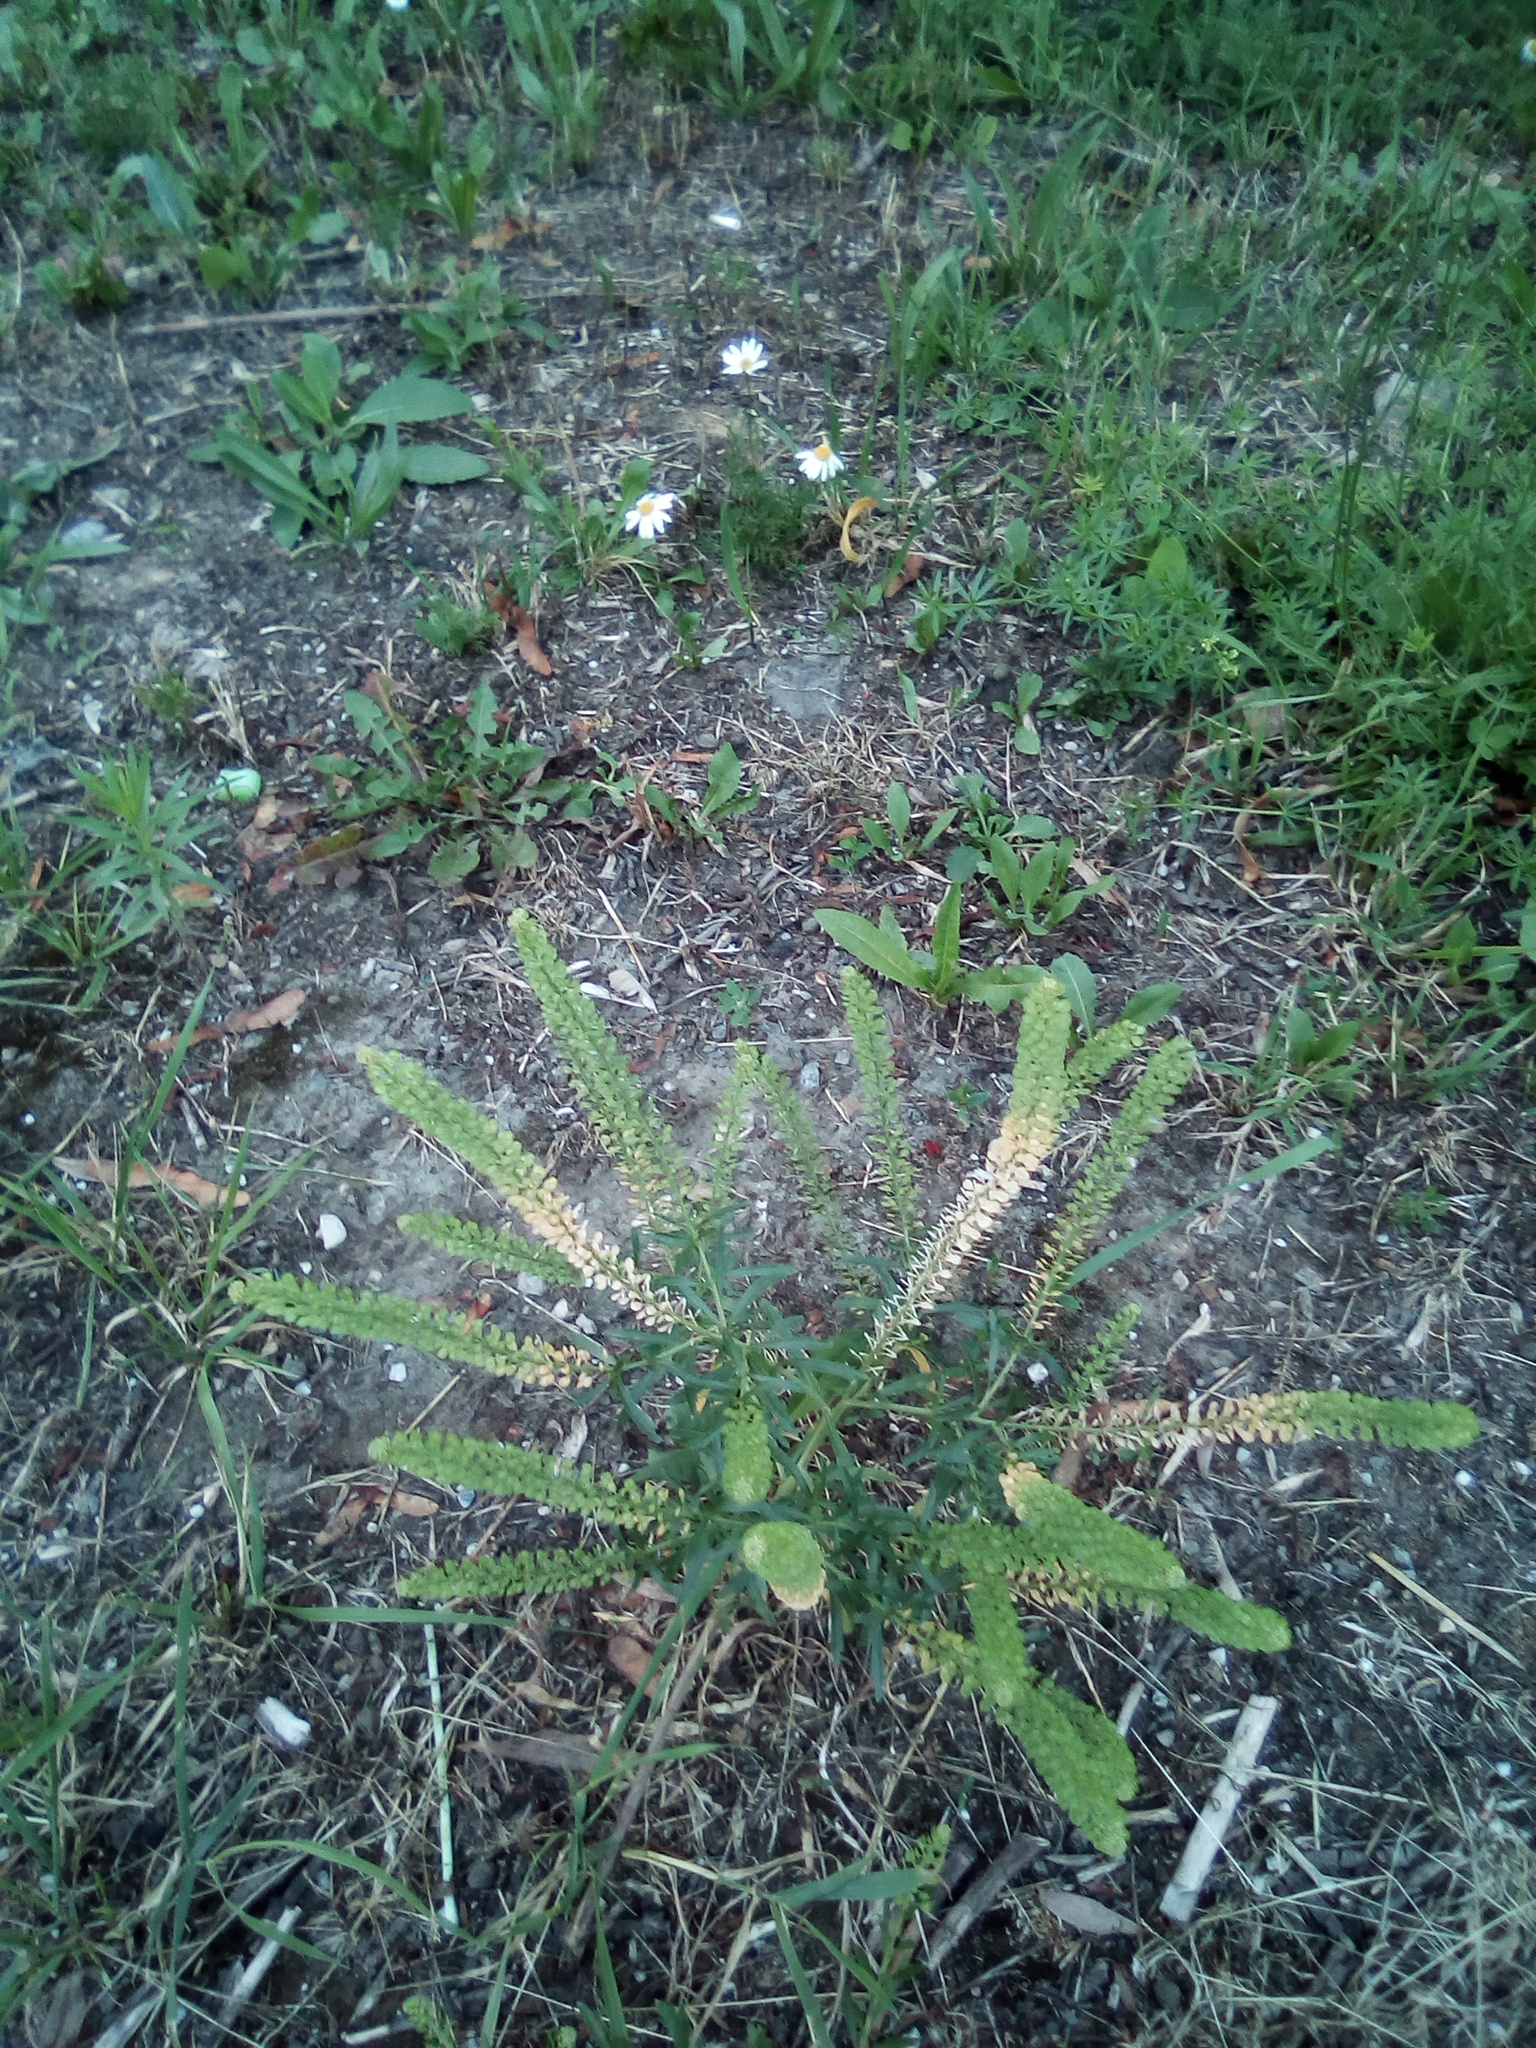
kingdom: Plantae
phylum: Tracheophyta
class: Magnoliopsida
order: Brassicales
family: Brassicaceae
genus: Lepidium
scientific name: Lepidium densiflorum
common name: Miner's pepperwort
